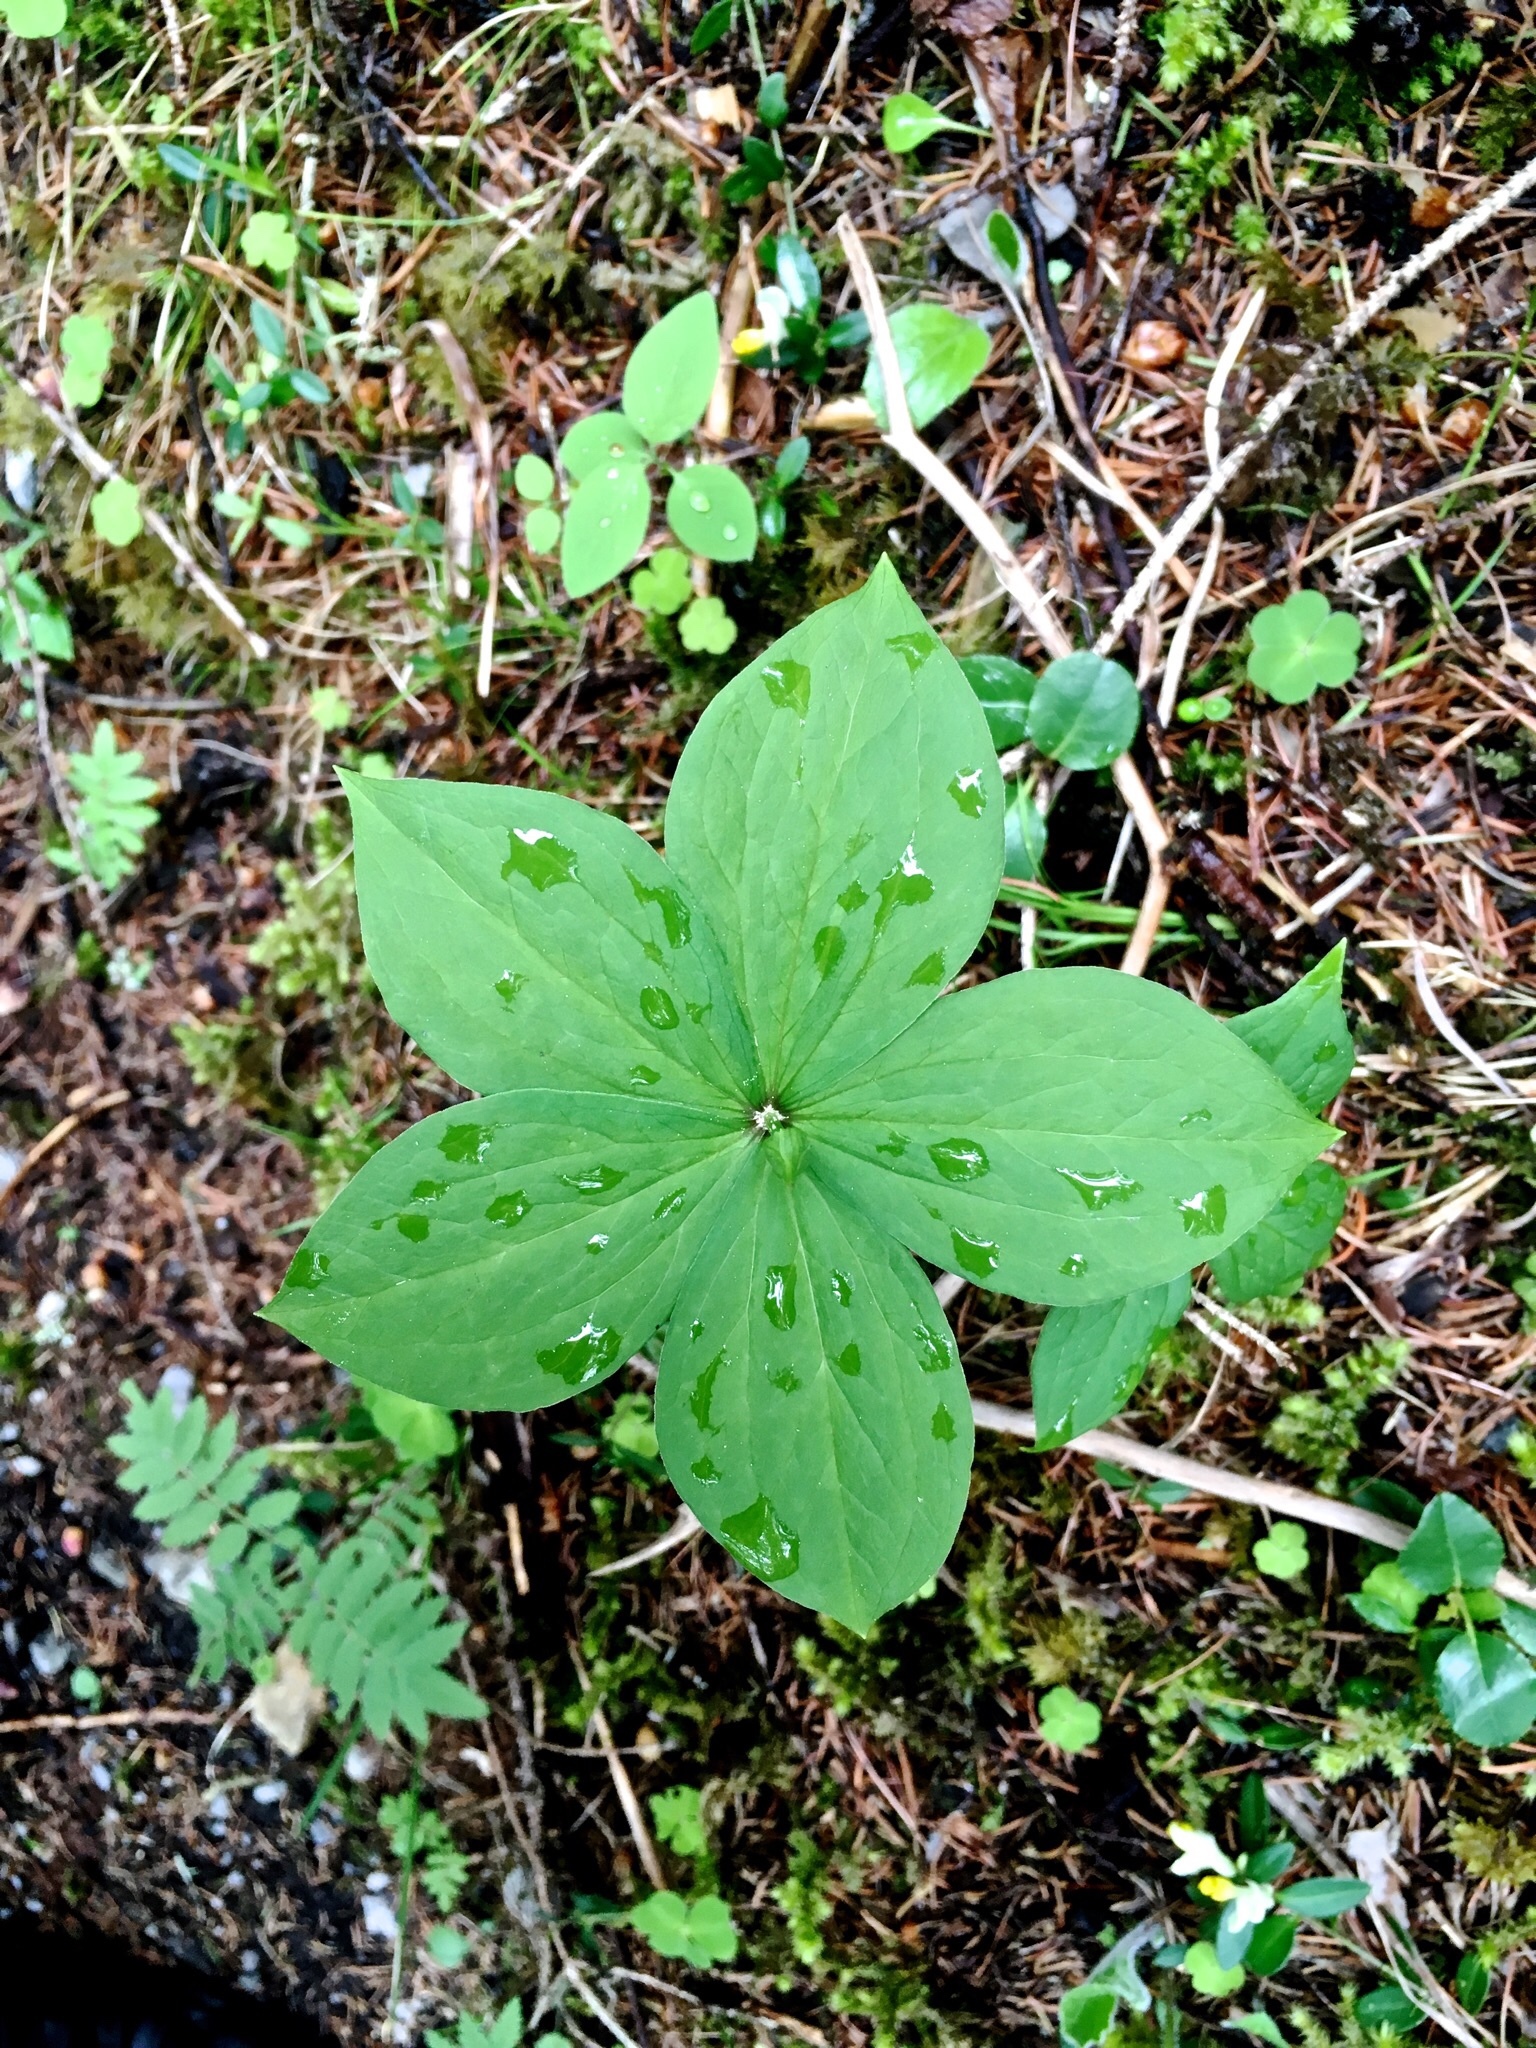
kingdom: Plantae
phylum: Tracheophyta
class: Liliopsida
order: Liliales
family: Melanthiaceae
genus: Paris
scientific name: Paris quadrifolia
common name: Herb-paris
